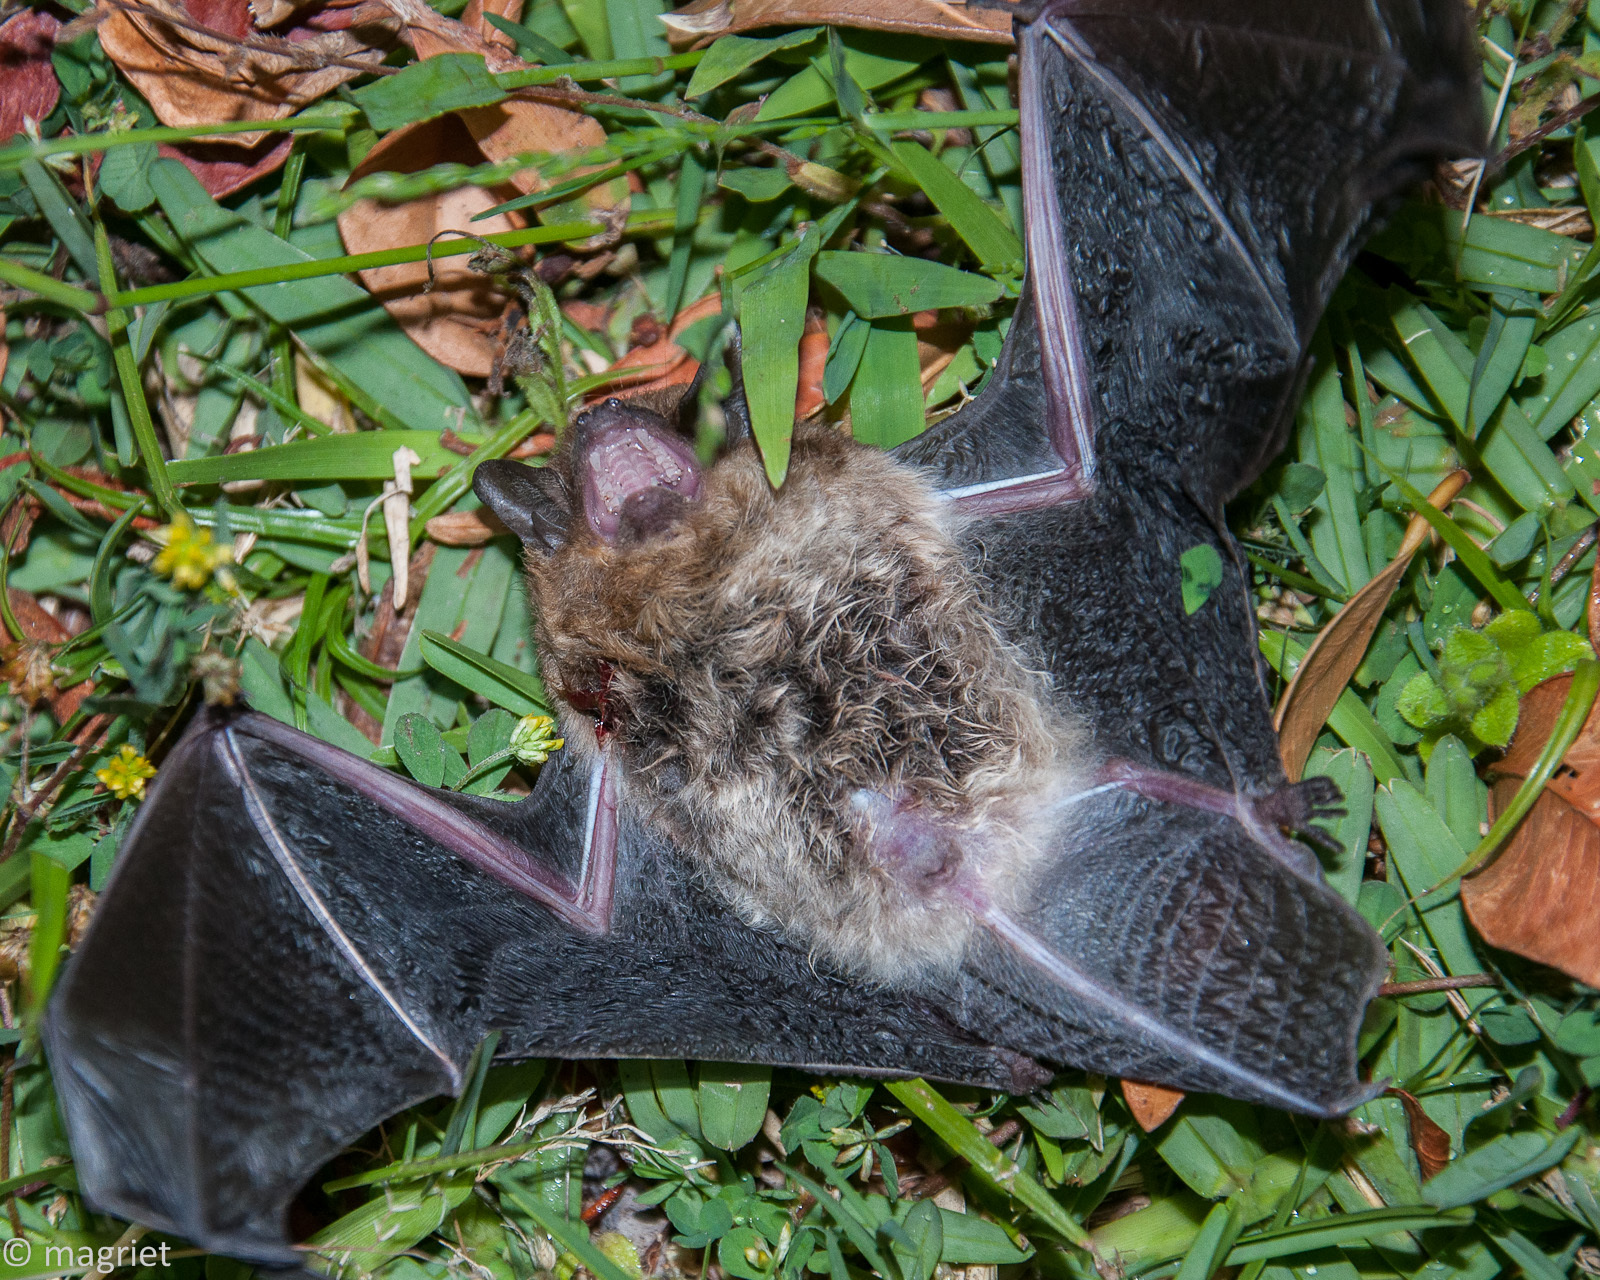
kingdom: Animalia
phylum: Chordata
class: Mammalia
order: Chiroptera
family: Vespertilionidae
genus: Laephotis
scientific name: Laephotis capensis
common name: Cape serotine
